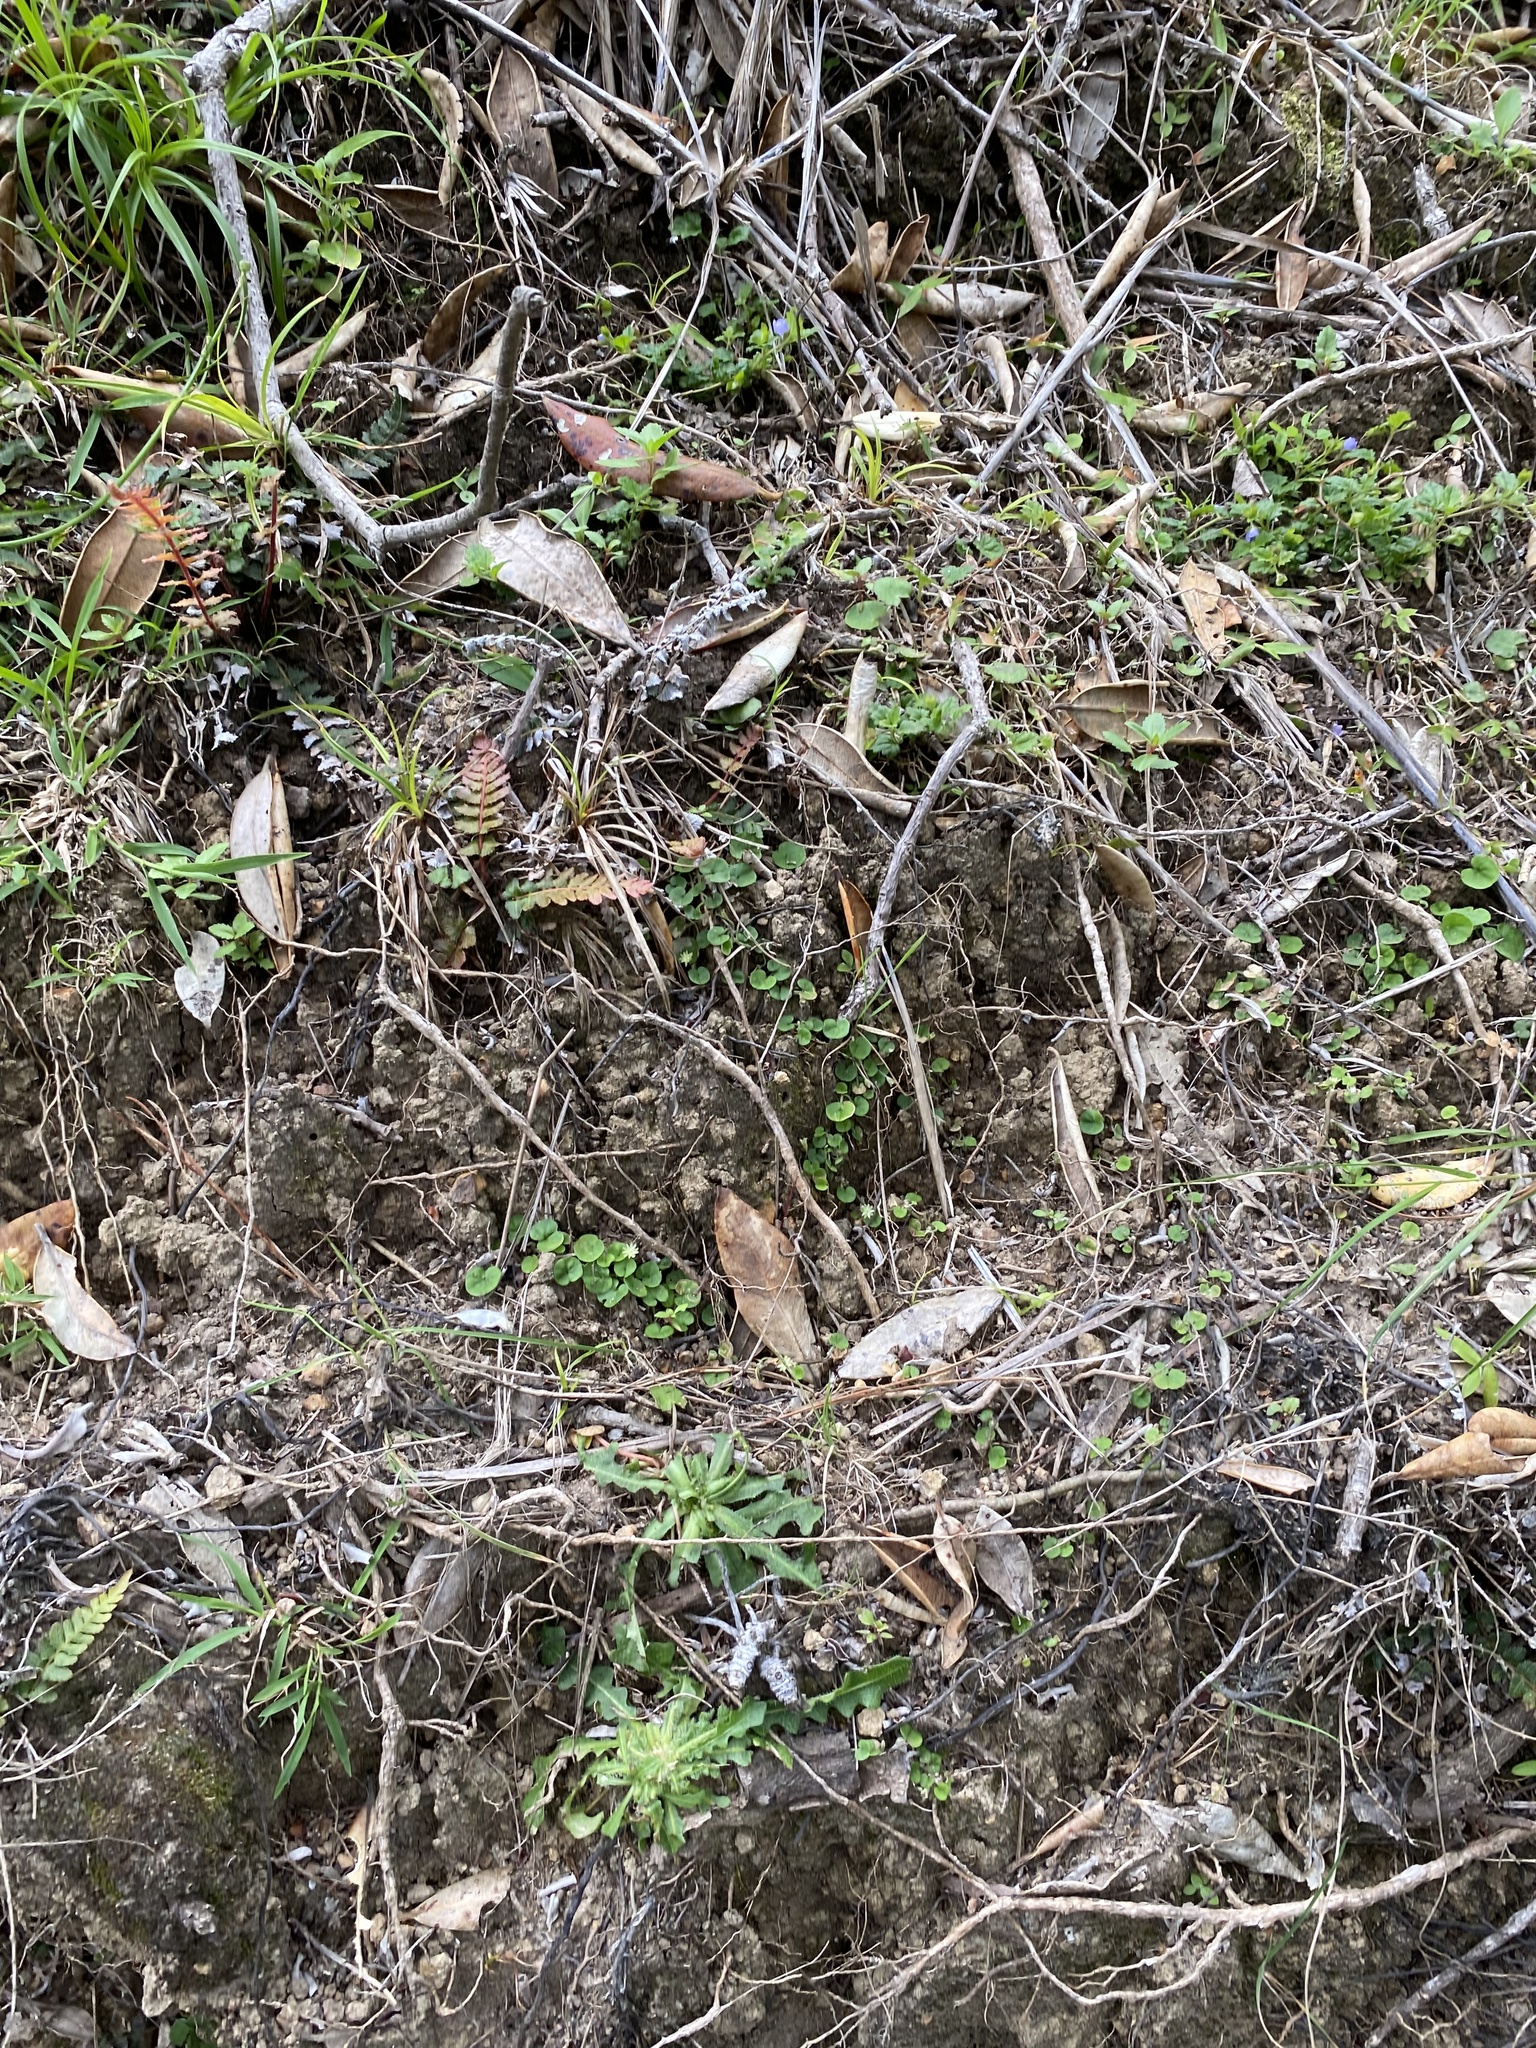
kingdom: Plantae
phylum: Tracheophyta
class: Magnoliopsida
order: Solanales
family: Convolvulaceae
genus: Dichondra
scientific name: Dichondra repens
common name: Kidneyweed
